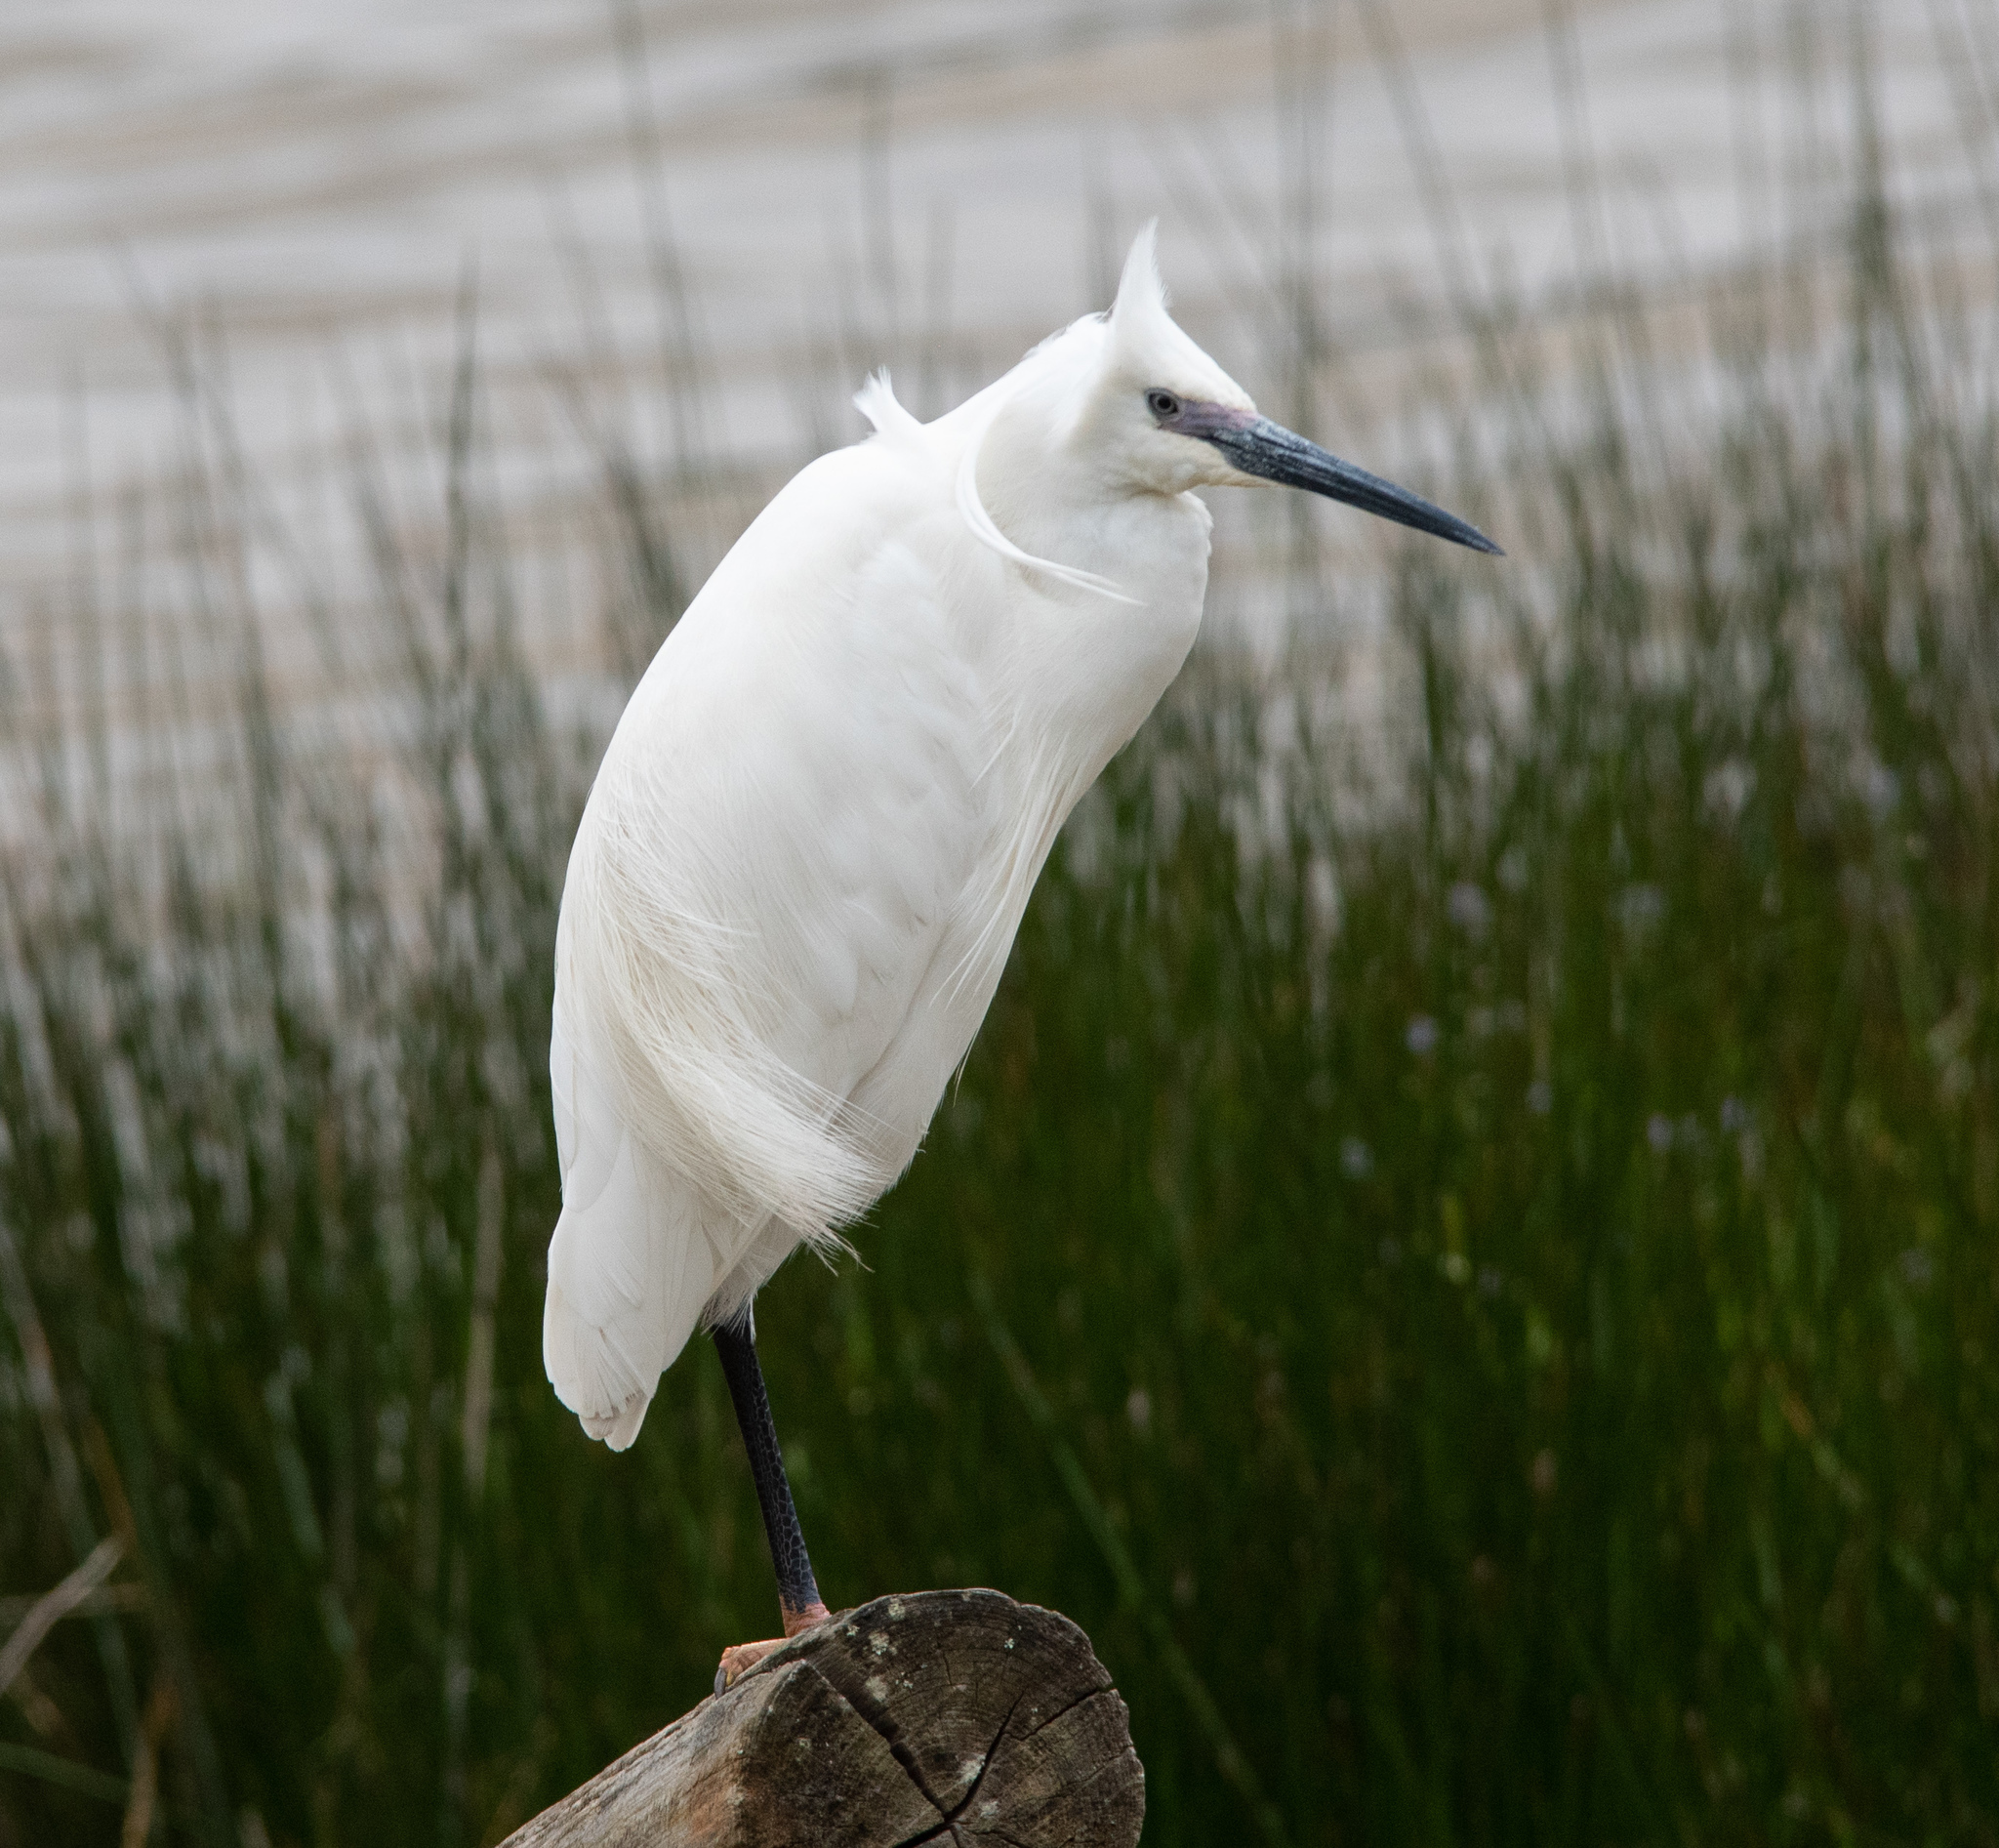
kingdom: Animalia
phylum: Chordata
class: Aves
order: Pelecaniformes
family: Ardeidae
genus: Egretta
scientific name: Egretta garzetta
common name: Little egret
